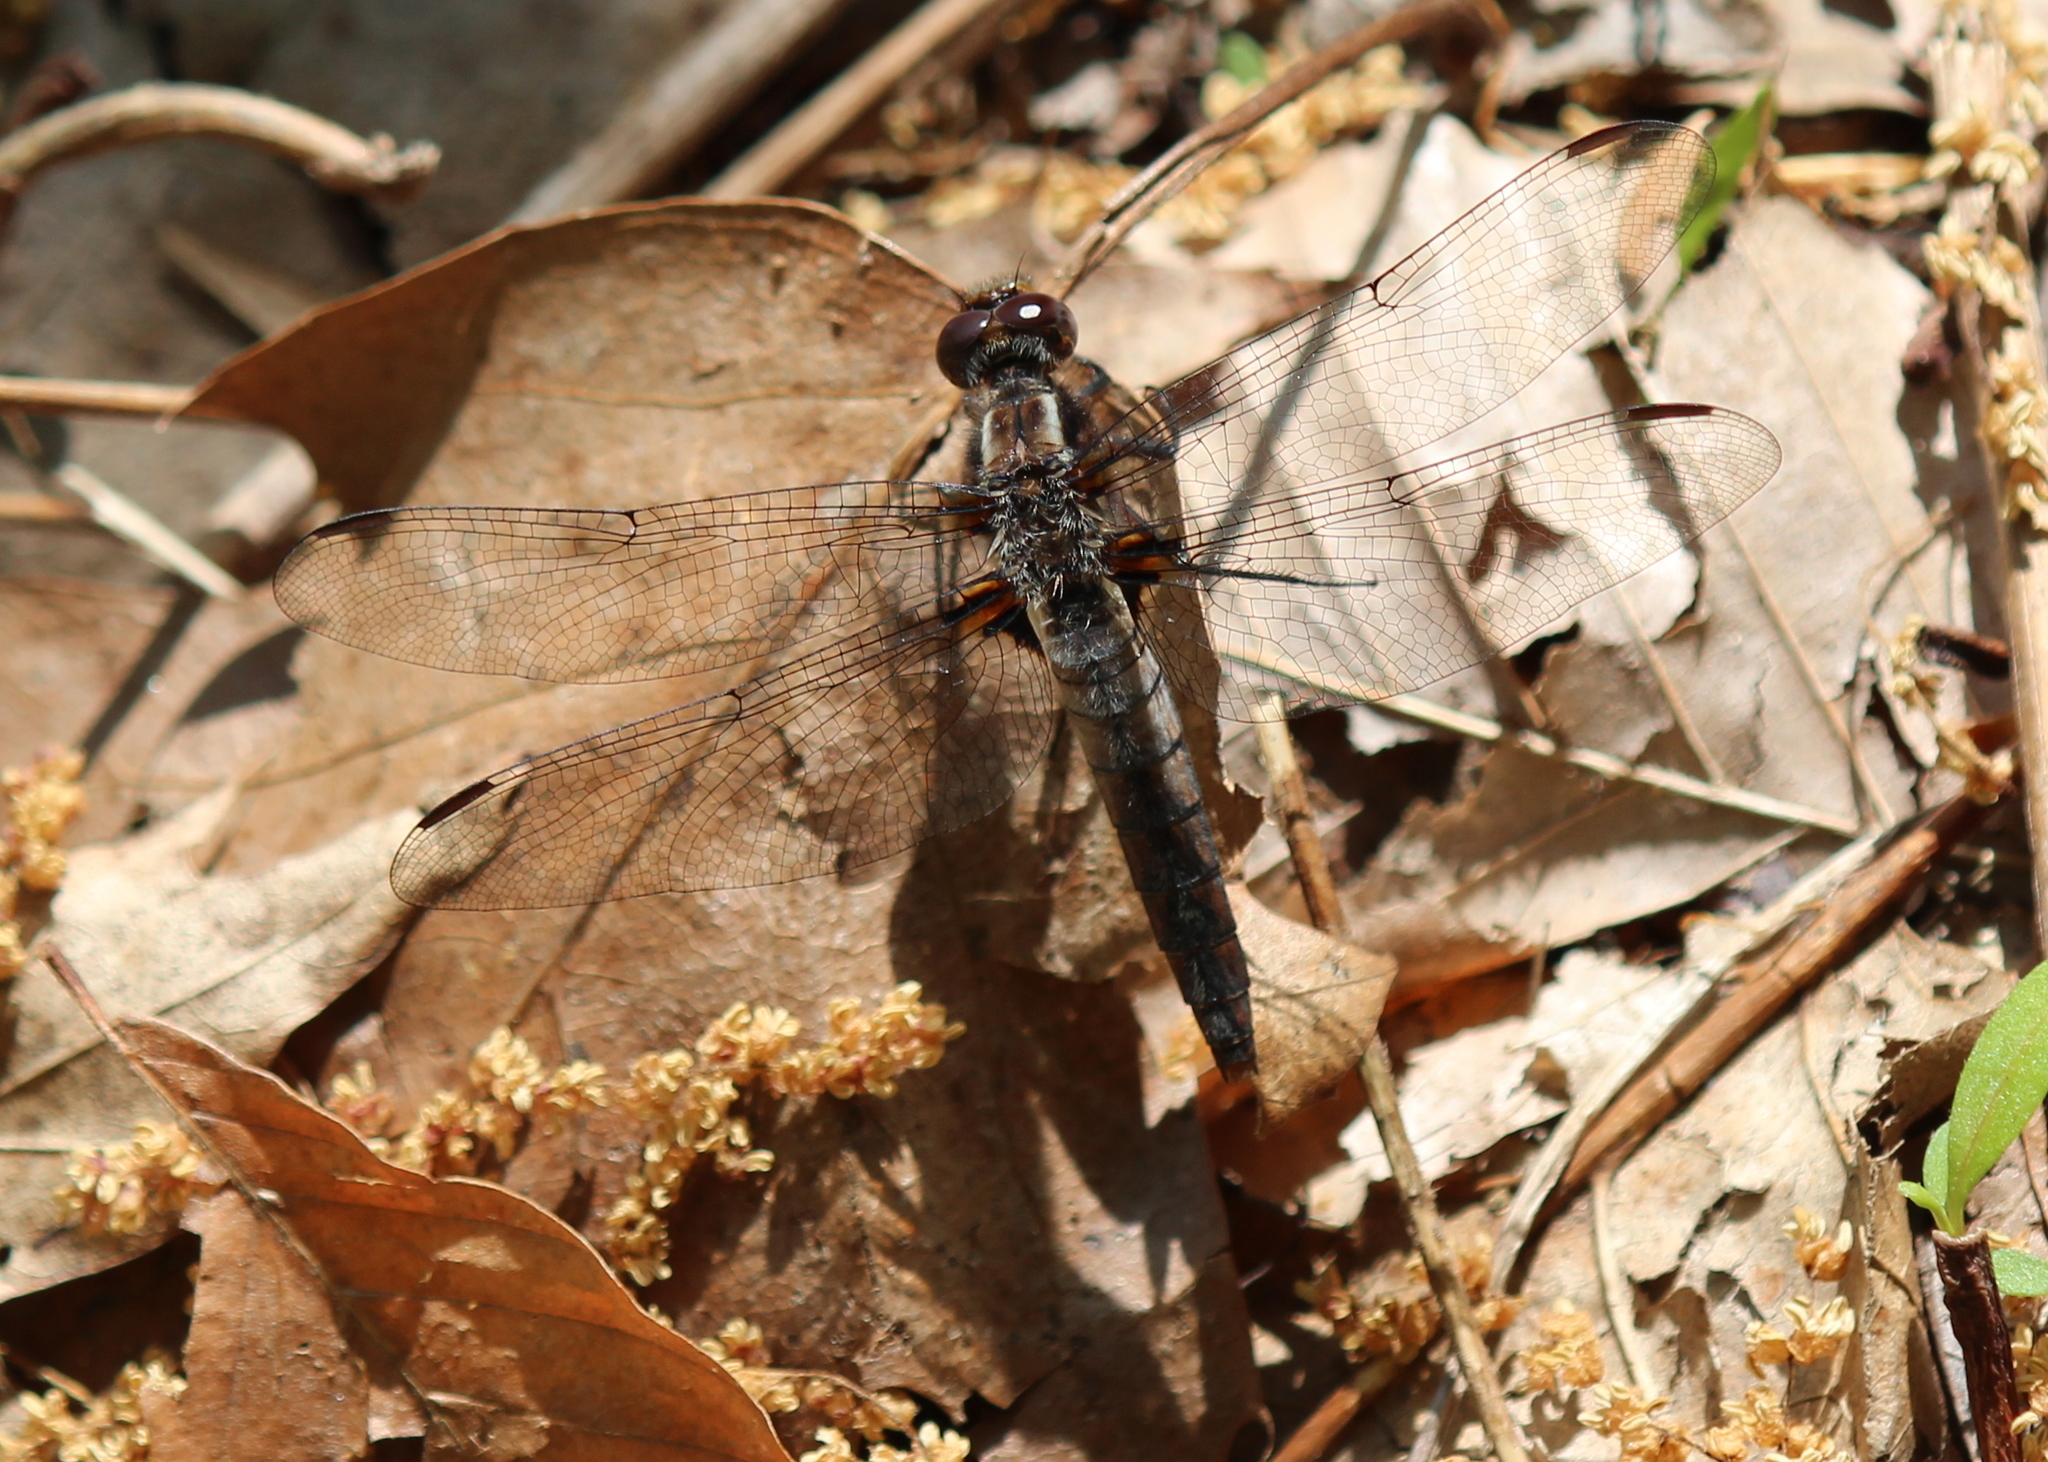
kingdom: Animalia
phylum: Arthropoda
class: Insecta
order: Odonata
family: Libellulidae
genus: Ladona
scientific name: Ladona julia
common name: Chalk-fronted corporal
